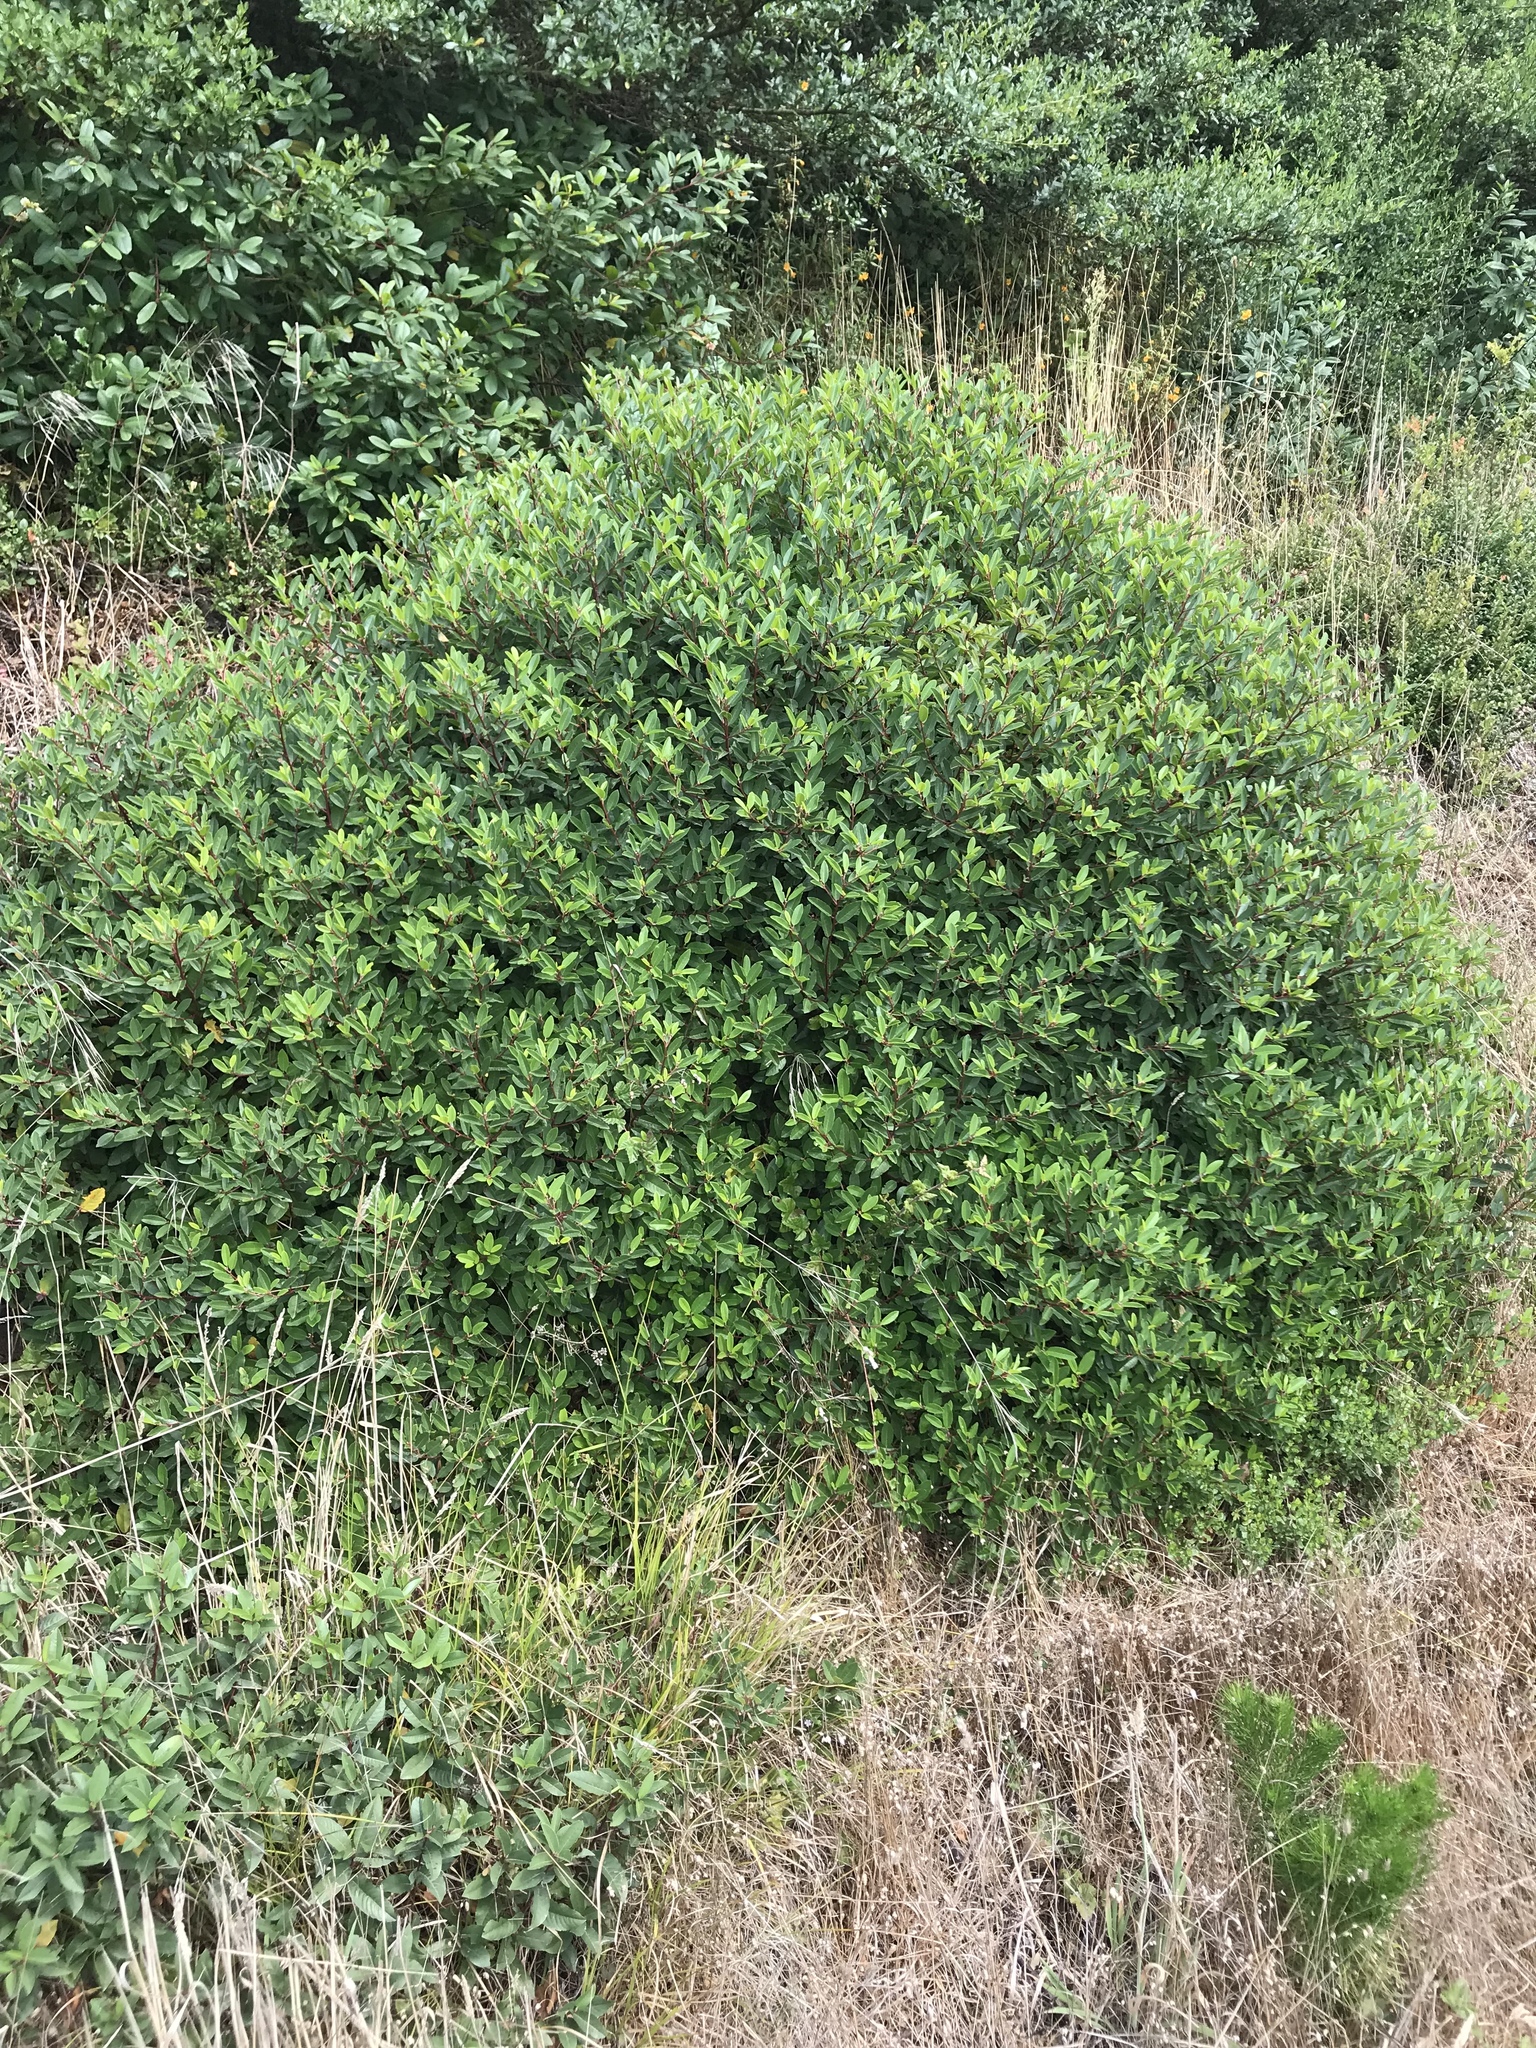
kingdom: Plantae
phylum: Tracheophyta
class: Magnoliopsida
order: Rosales
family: Rhamnaceae
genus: Frangula
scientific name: Frangula californica
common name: California buckthorn
